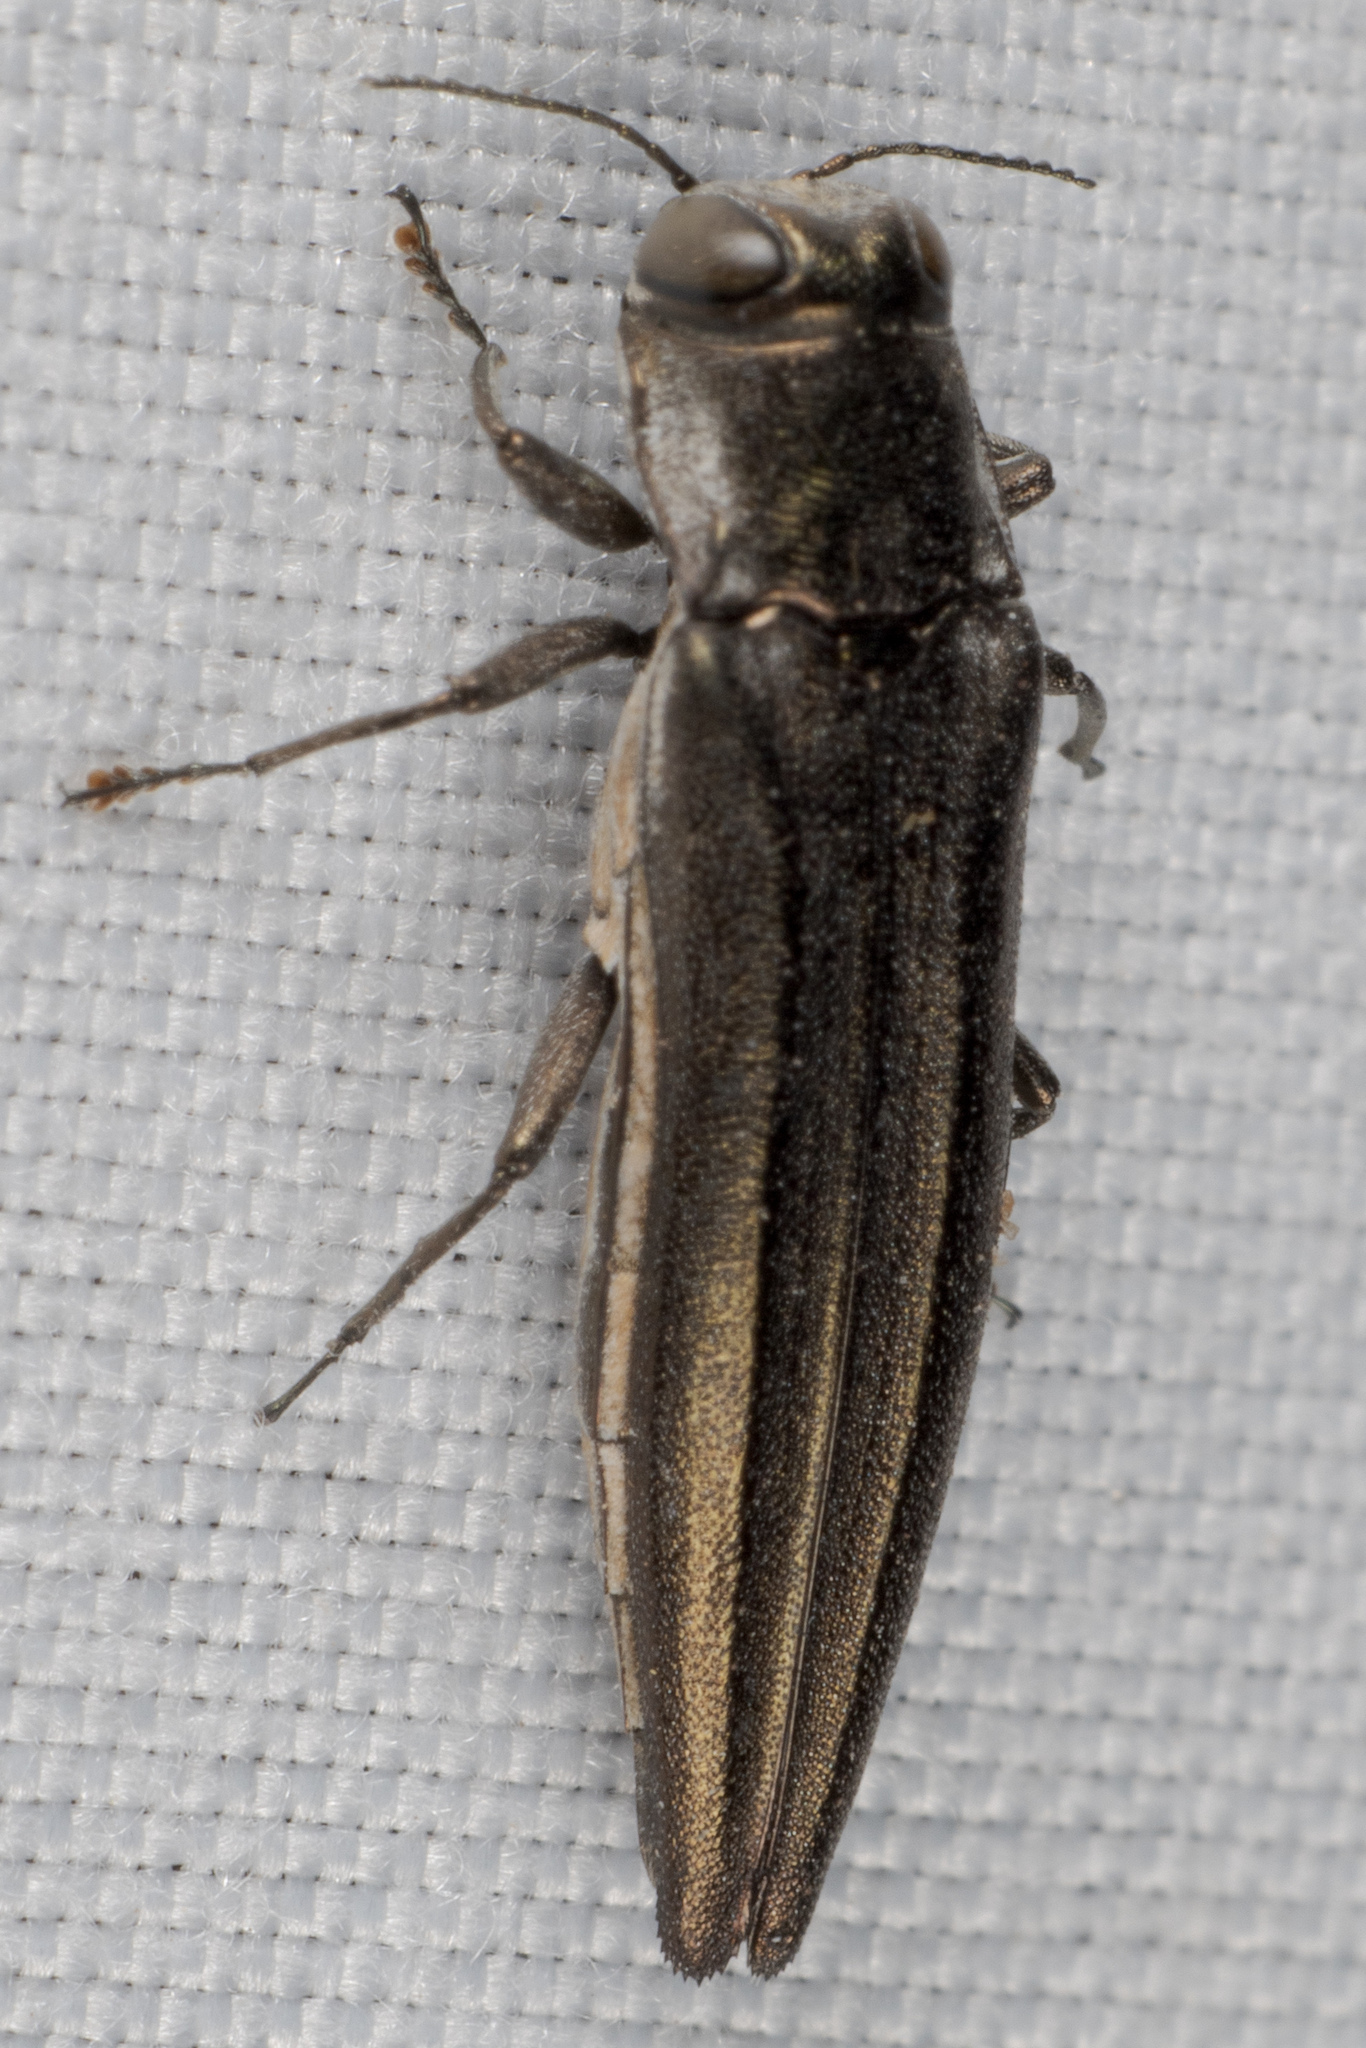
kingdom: Animalia
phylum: Arthropoda
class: Insecta
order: Coleoptera
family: Buprestidae
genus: Agrilus
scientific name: Agrilus macer
